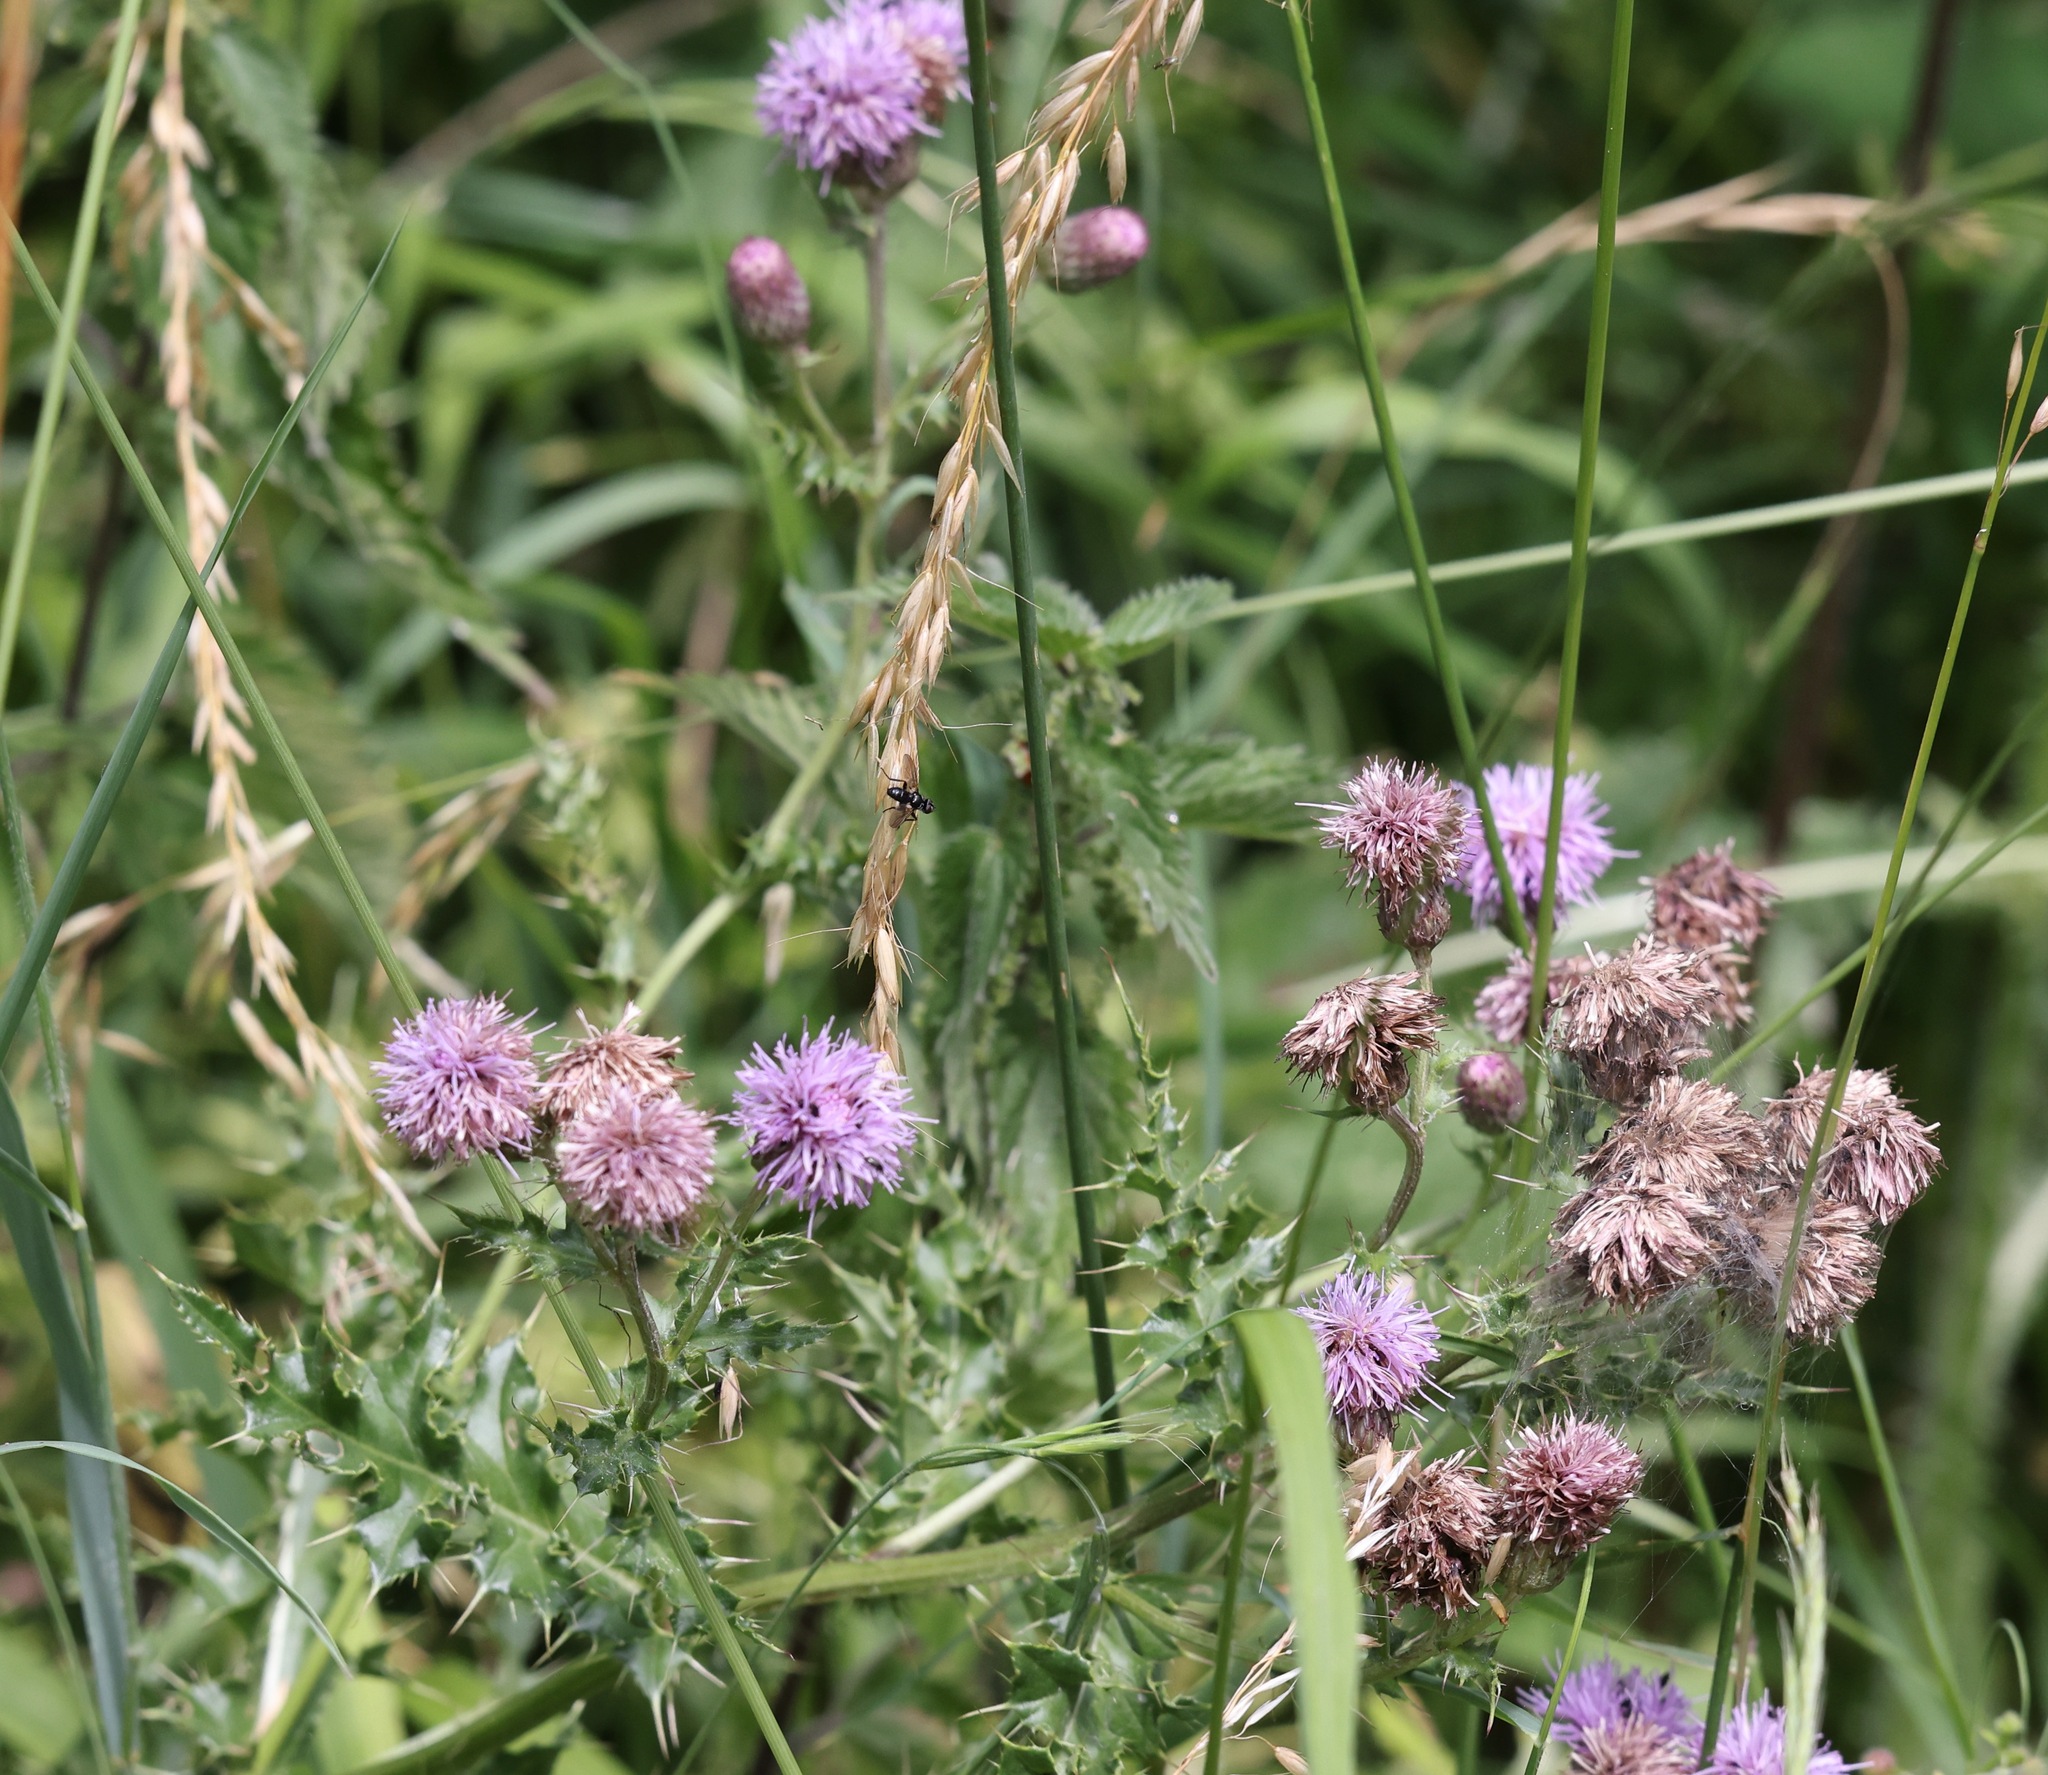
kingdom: Plantae
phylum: Tracheophyta
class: Magnoliopsida
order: Asterales
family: Asteraceae
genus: Cirsium
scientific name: Cirsium arvense
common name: Creeping thistle
